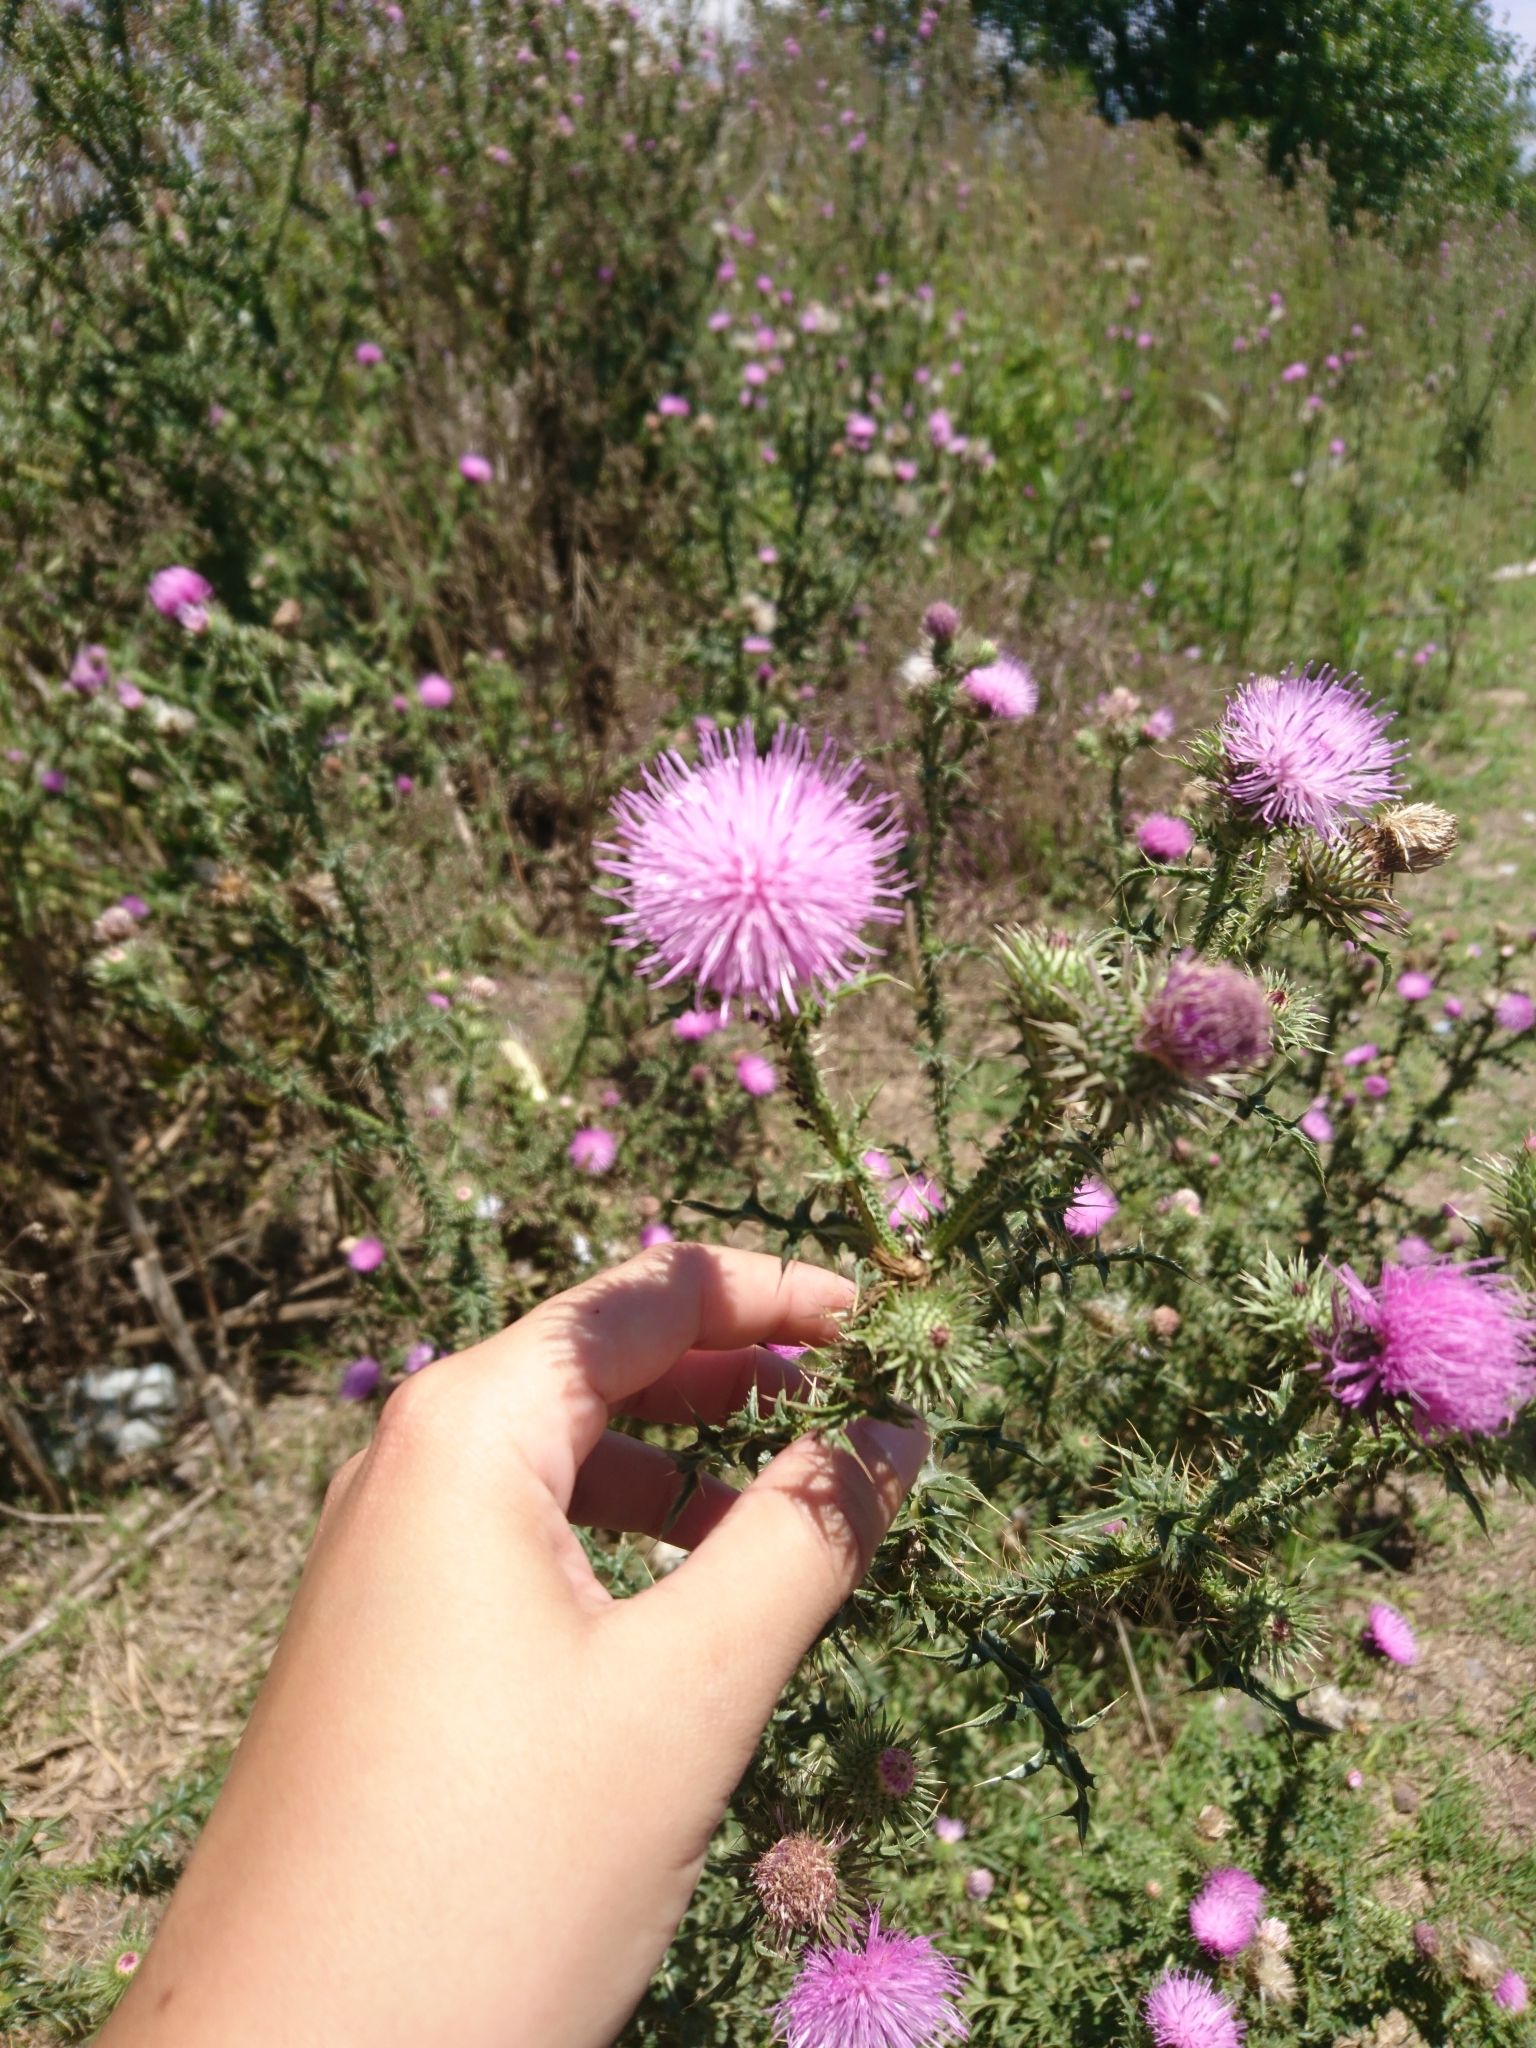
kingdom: Plantae
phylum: Tracheophyta
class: Magnoliopsida
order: Asterales
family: Asteraceae
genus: Carduus
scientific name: Carduus acanthoides
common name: Plumeless thistle
